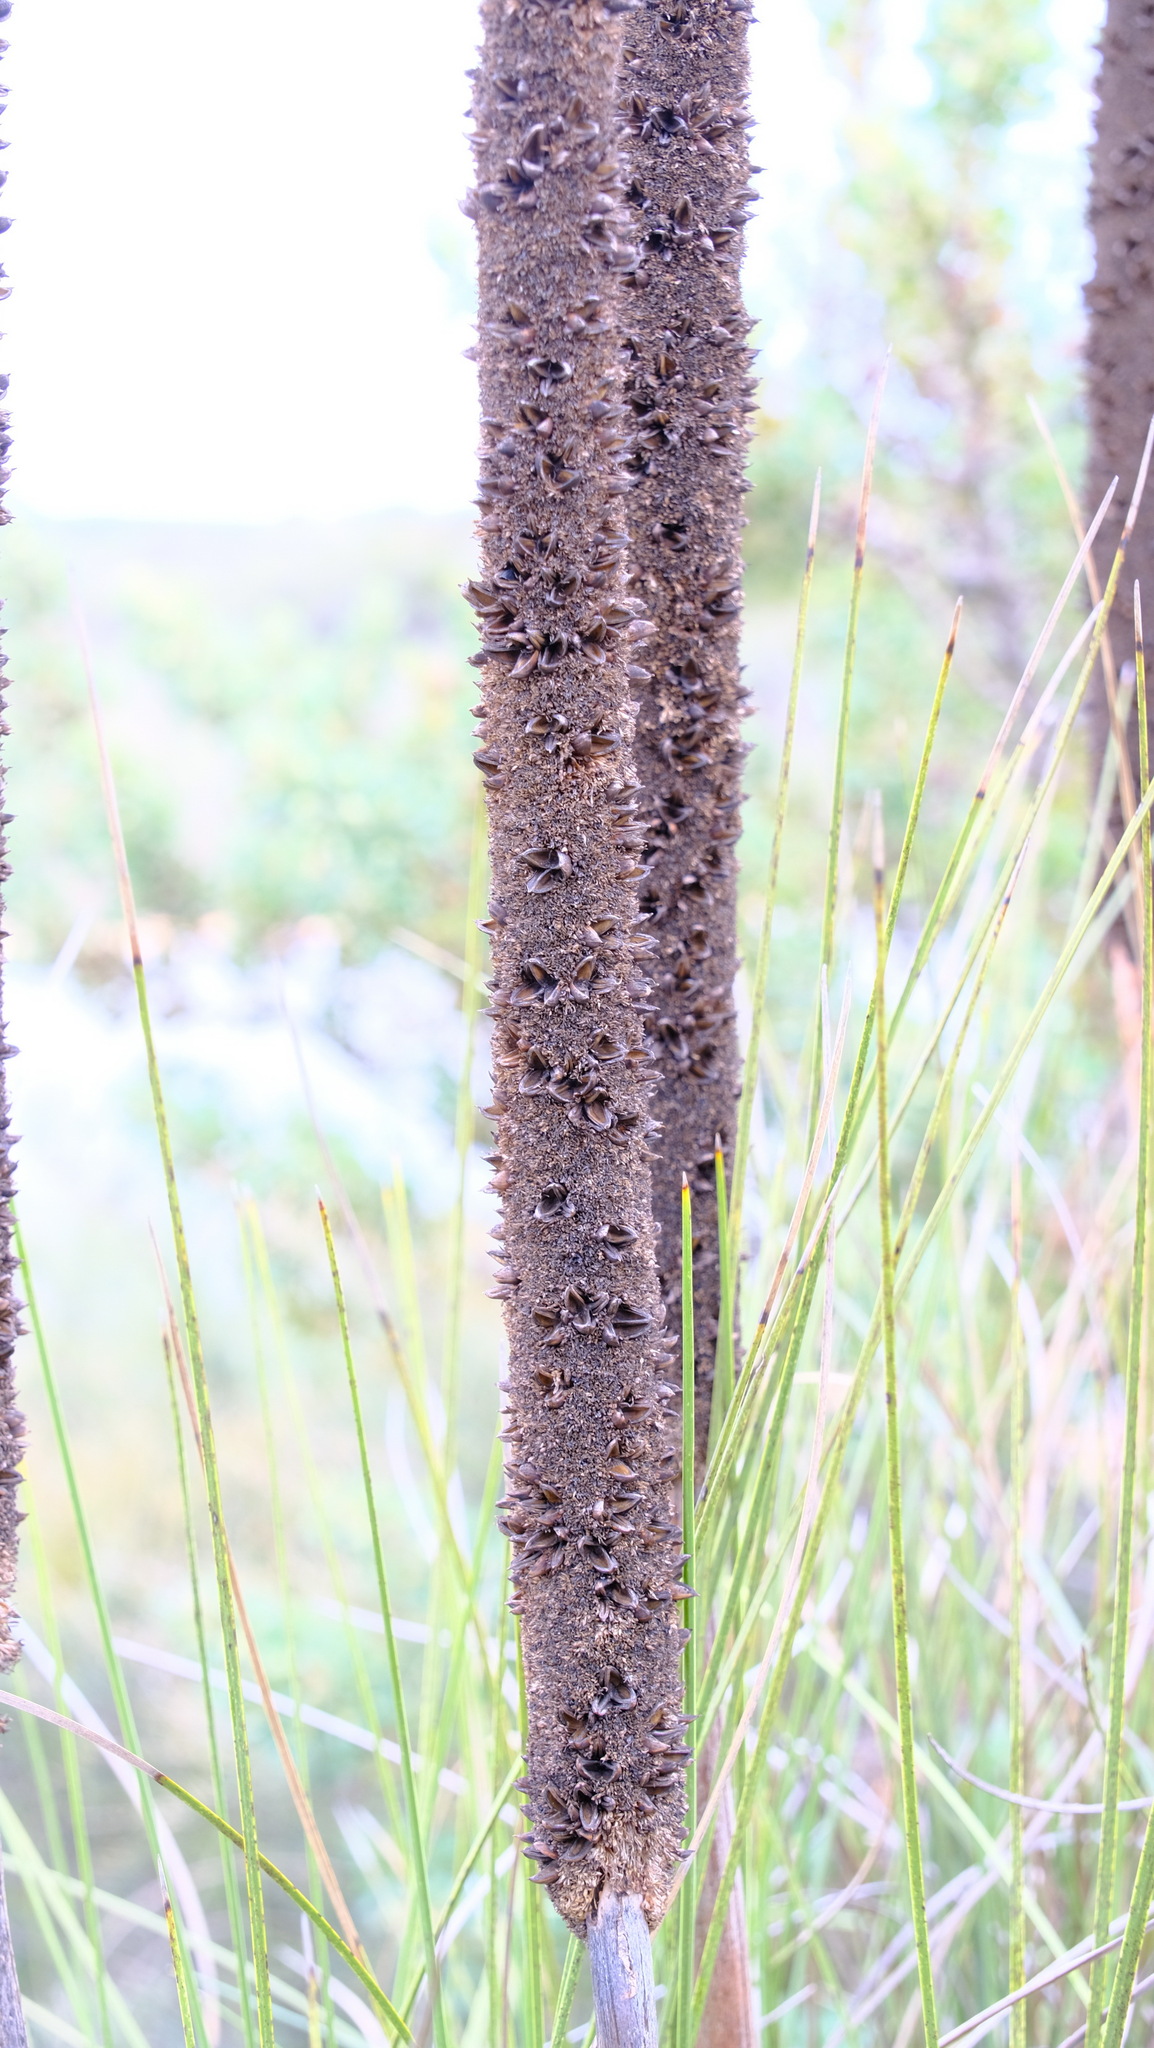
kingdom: Plantae
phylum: Tracheophyta
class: Liliopsida
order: Asparagales
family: Asphodelaceae
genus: Xanthorrhoea
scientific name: Xanthorrhoea brunonis
